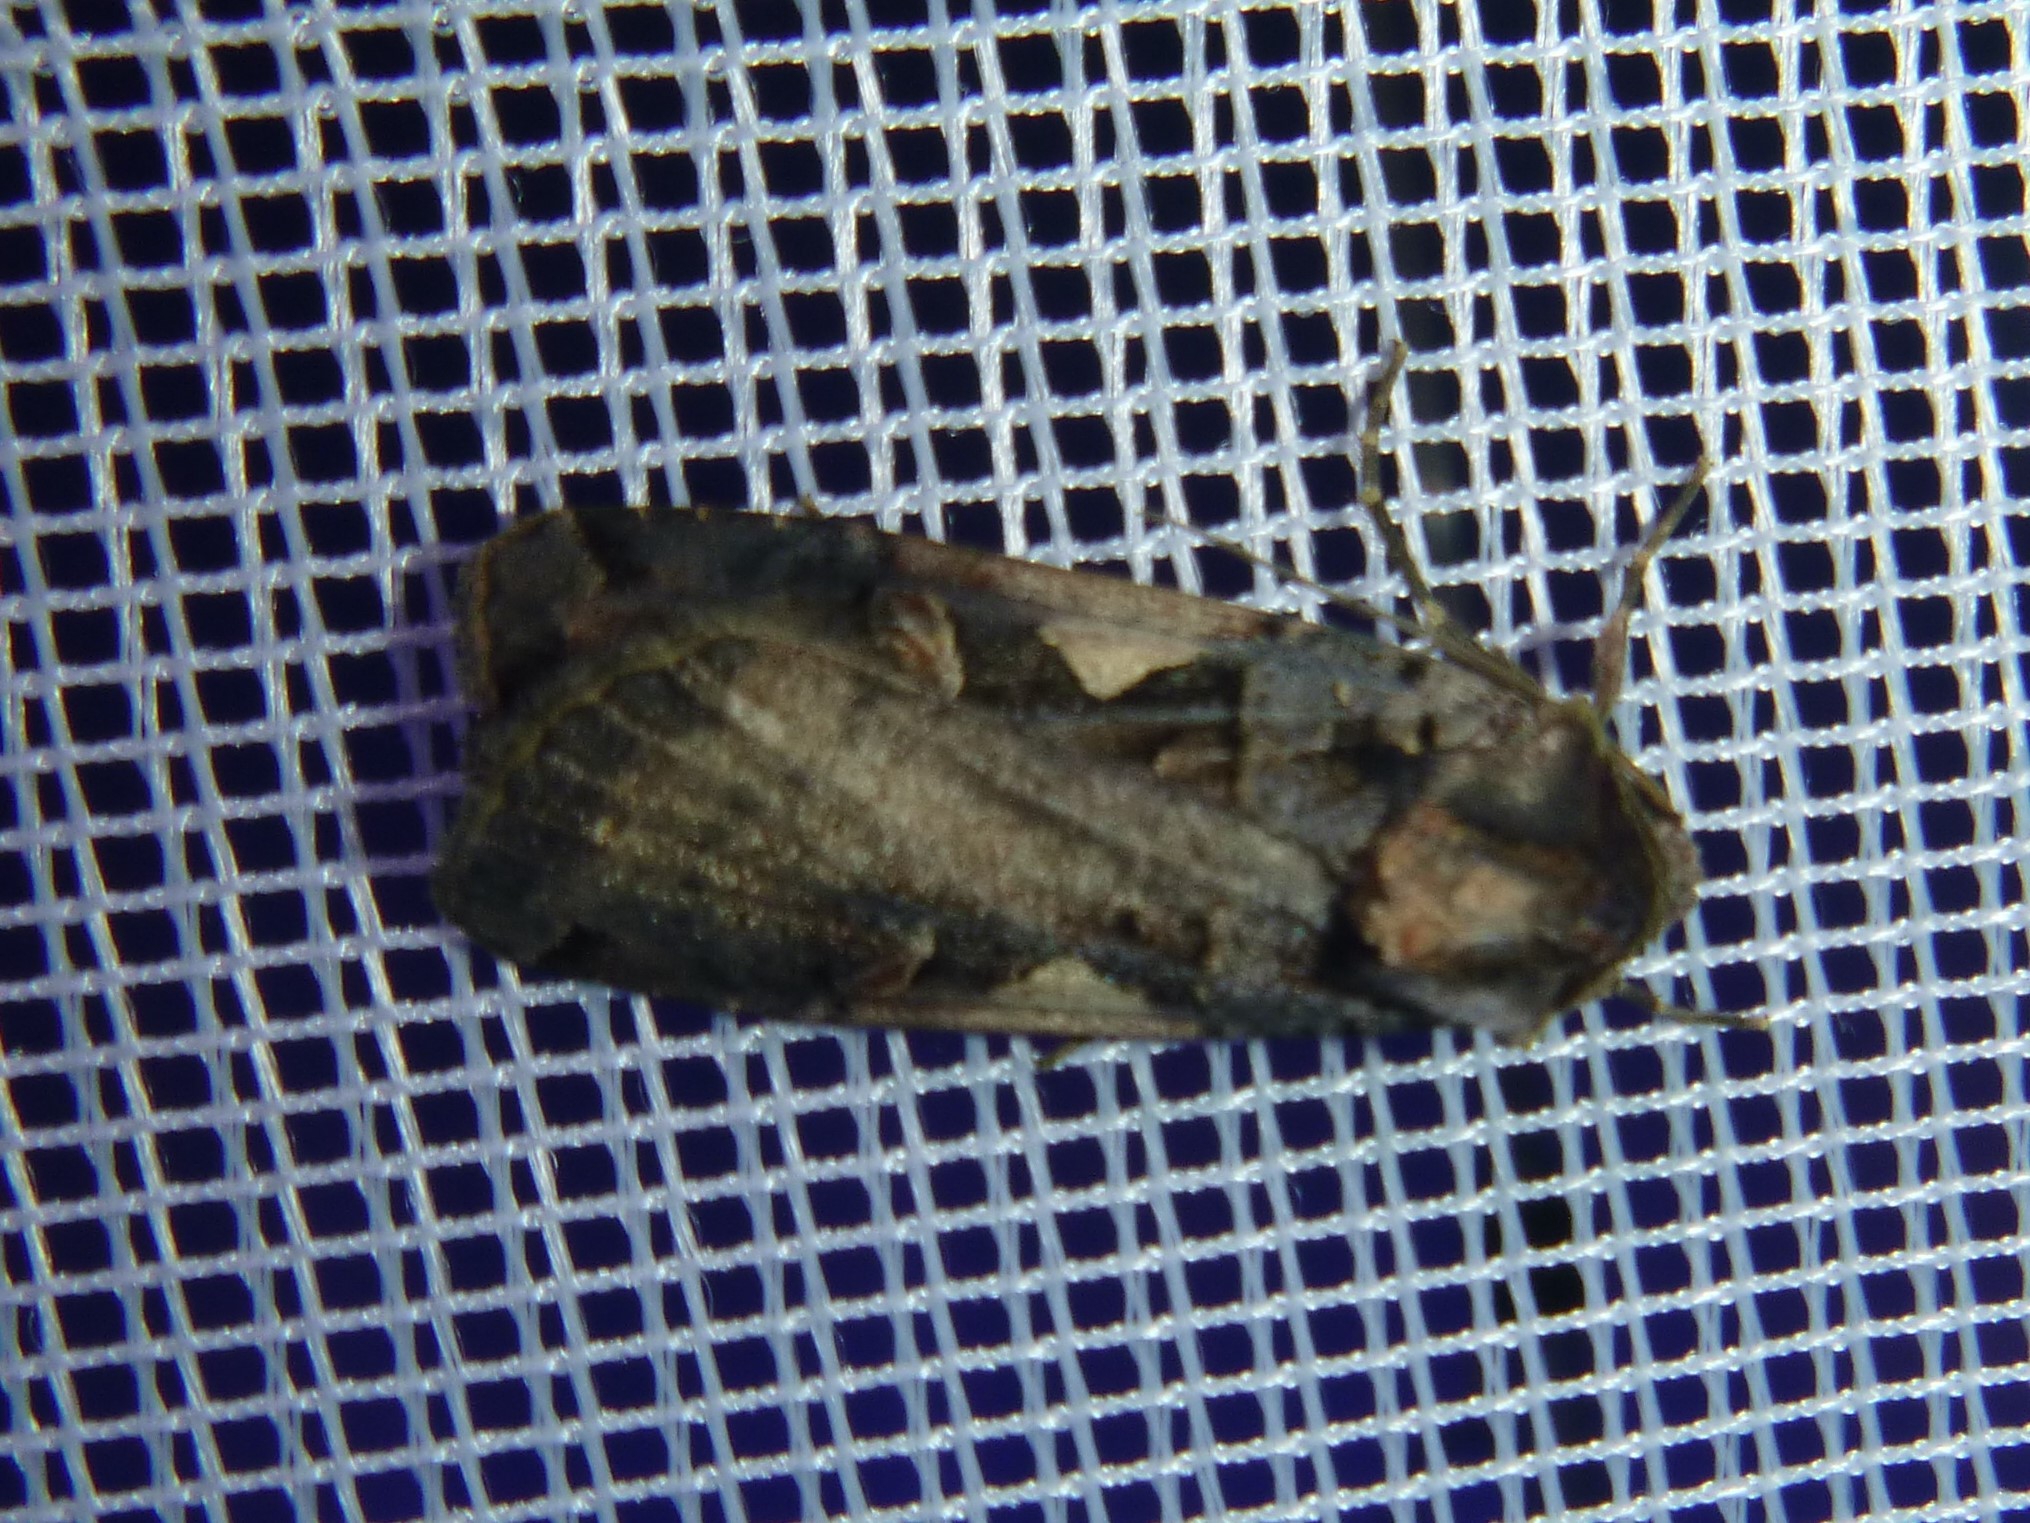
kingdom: Animalia
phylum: Arthropoda
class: Insecta
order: Lepidoptera
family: Noctuidae
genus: Xestia
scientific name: Xestia c-nigrum
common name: Setaceous hebrew character
